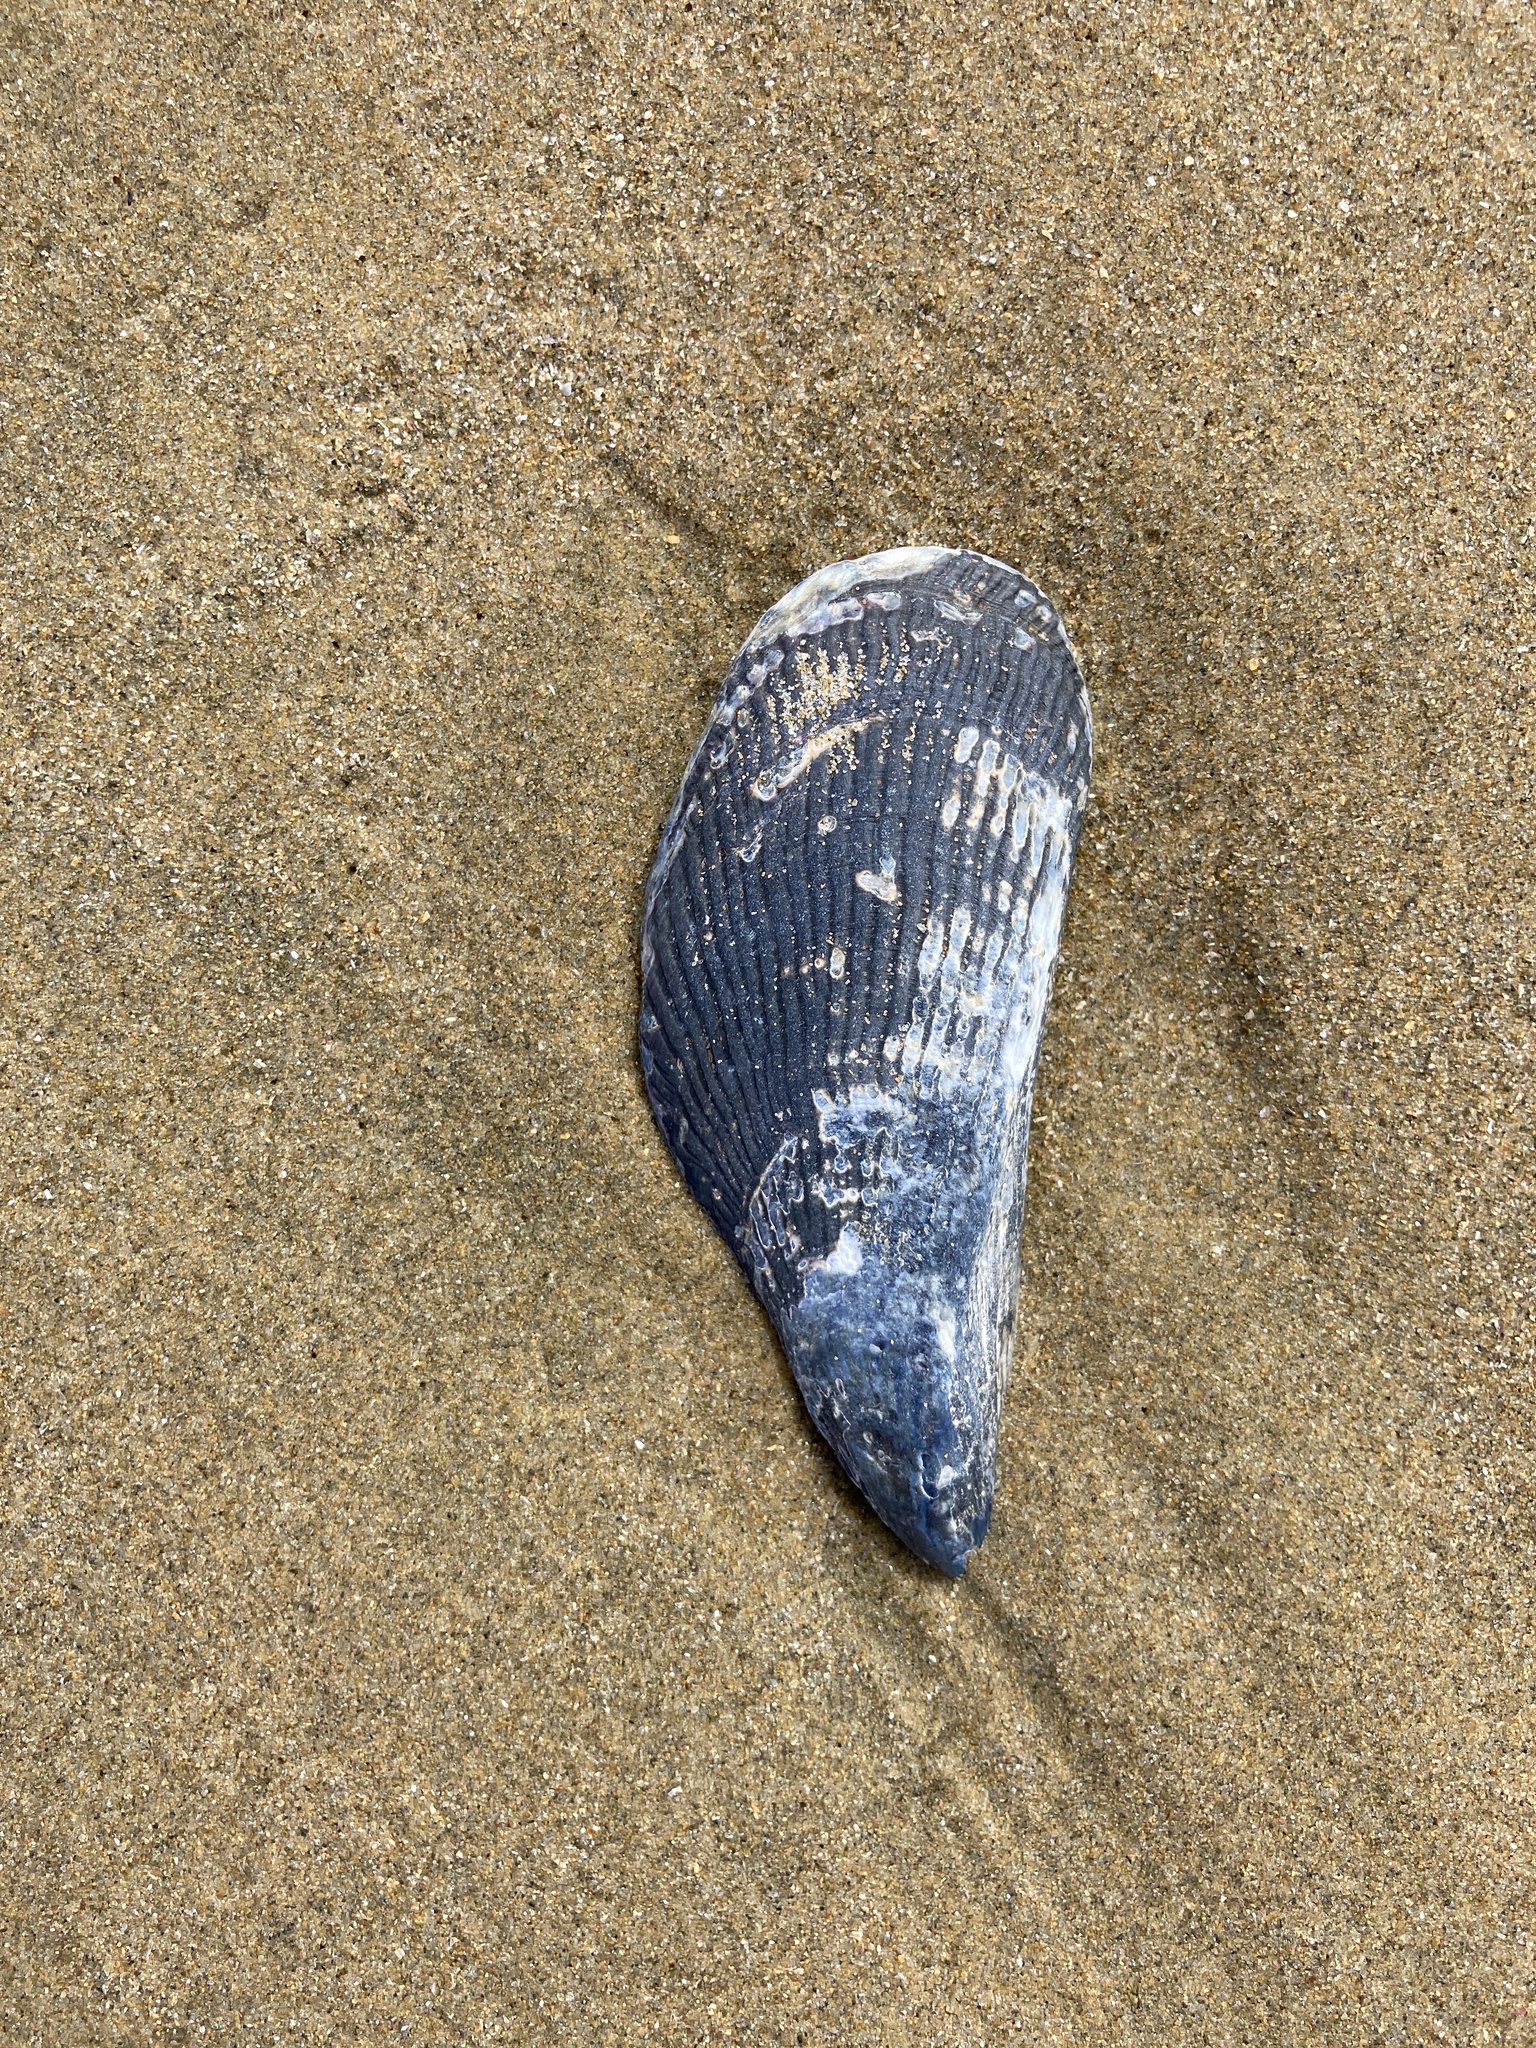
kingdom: Animalia
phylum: Mollusca
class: Bivalvia
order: Mytilida
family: Mytilidae
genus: Aulacomya
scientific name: Aulacomya maoriana
